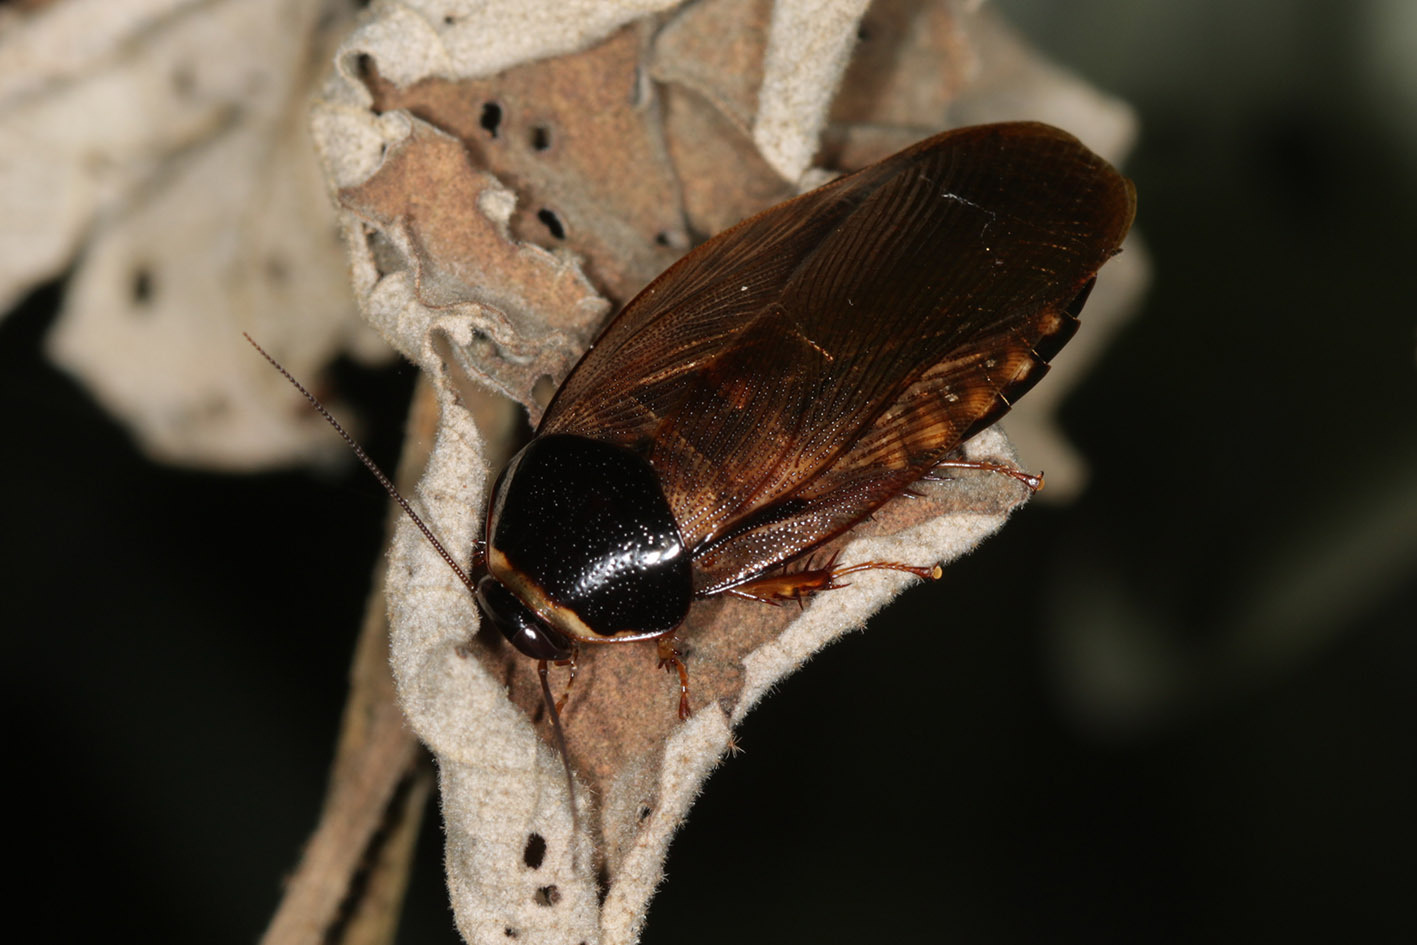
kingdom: Animalia
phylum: Arthropoda
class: Insecta
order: Blattodea
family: Blaberidae
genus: Pycnoscelus
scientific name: Pycnoscelus surinamensis
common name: Surinam cockroach
